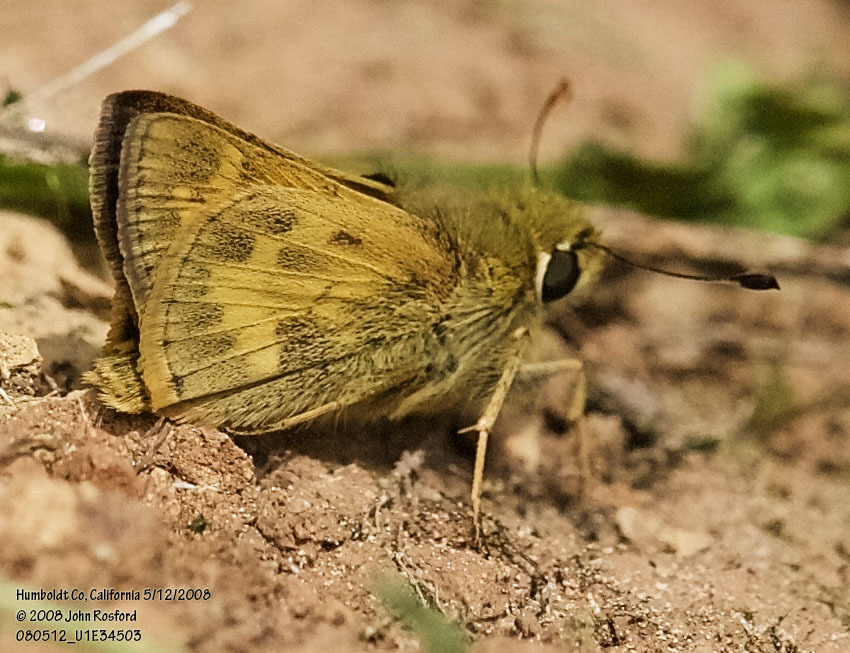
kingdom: Animalia
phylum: Arthropoda
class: Insecta
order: Lepidoptera
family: Hesperiidae
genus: Atalopedes
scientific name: Atalopedes campestris
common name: Sachem
